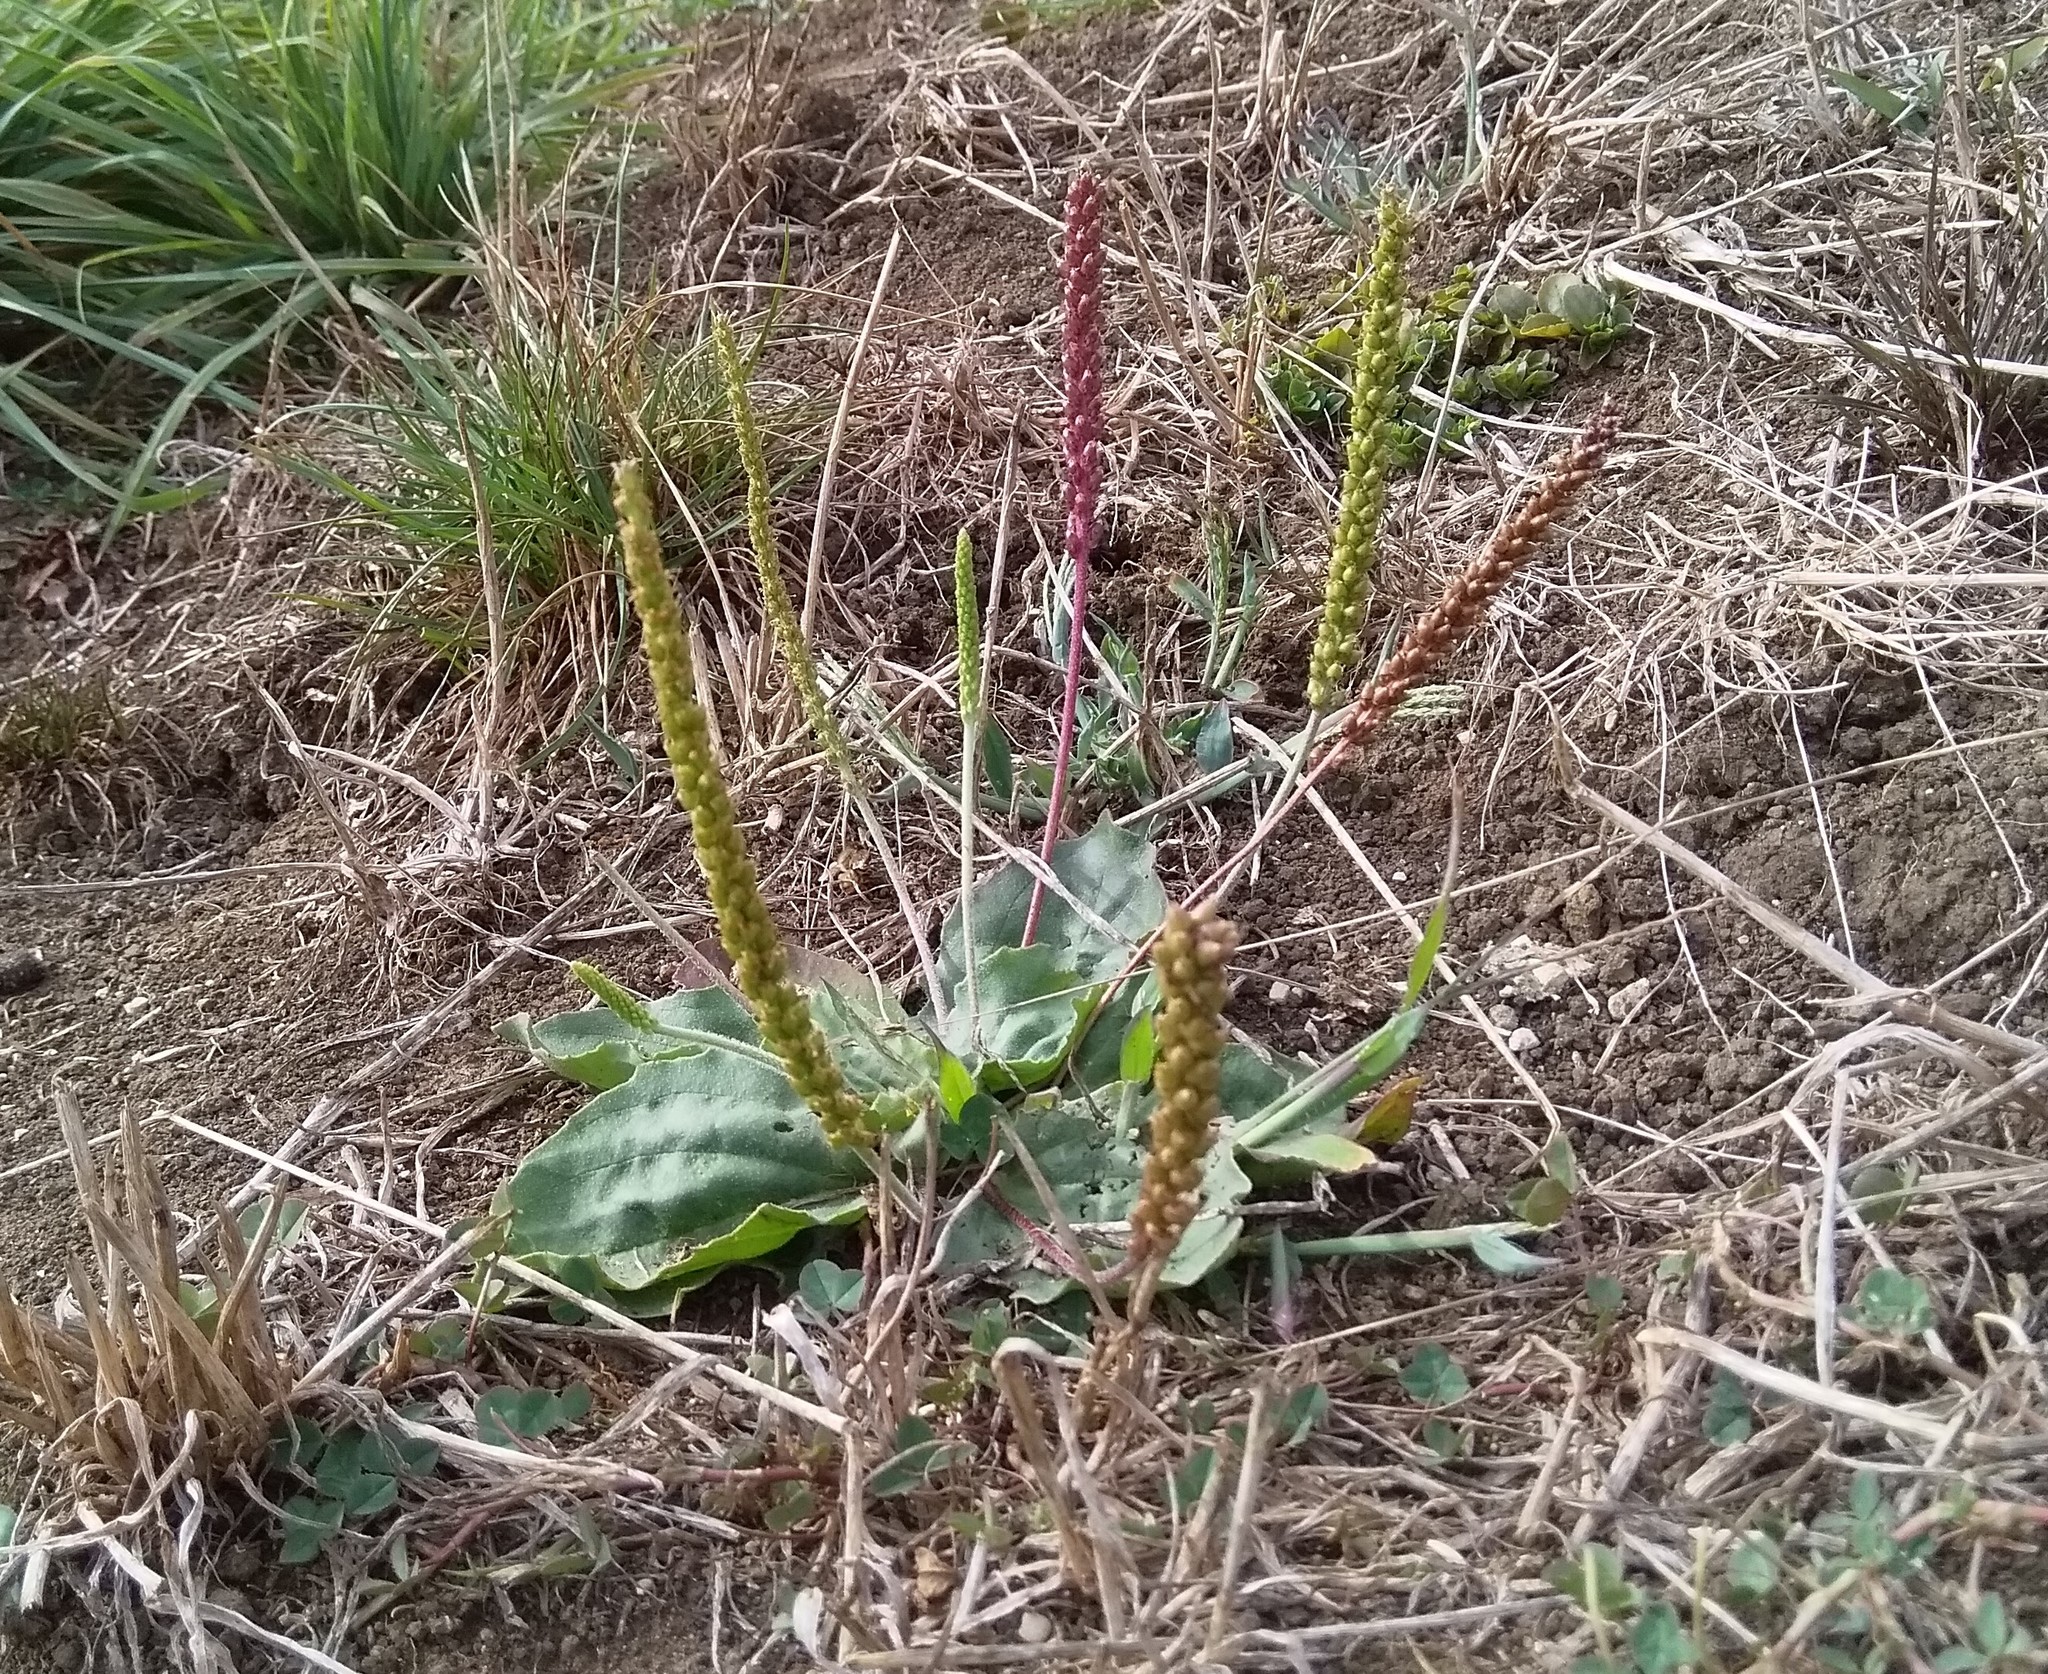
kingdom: Plantae
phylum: Tracheophyta
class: Magnoliopsida
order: Lamiales
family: Plantaginaceae
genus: Plantago
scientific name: Plantago major
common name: Common plantain
